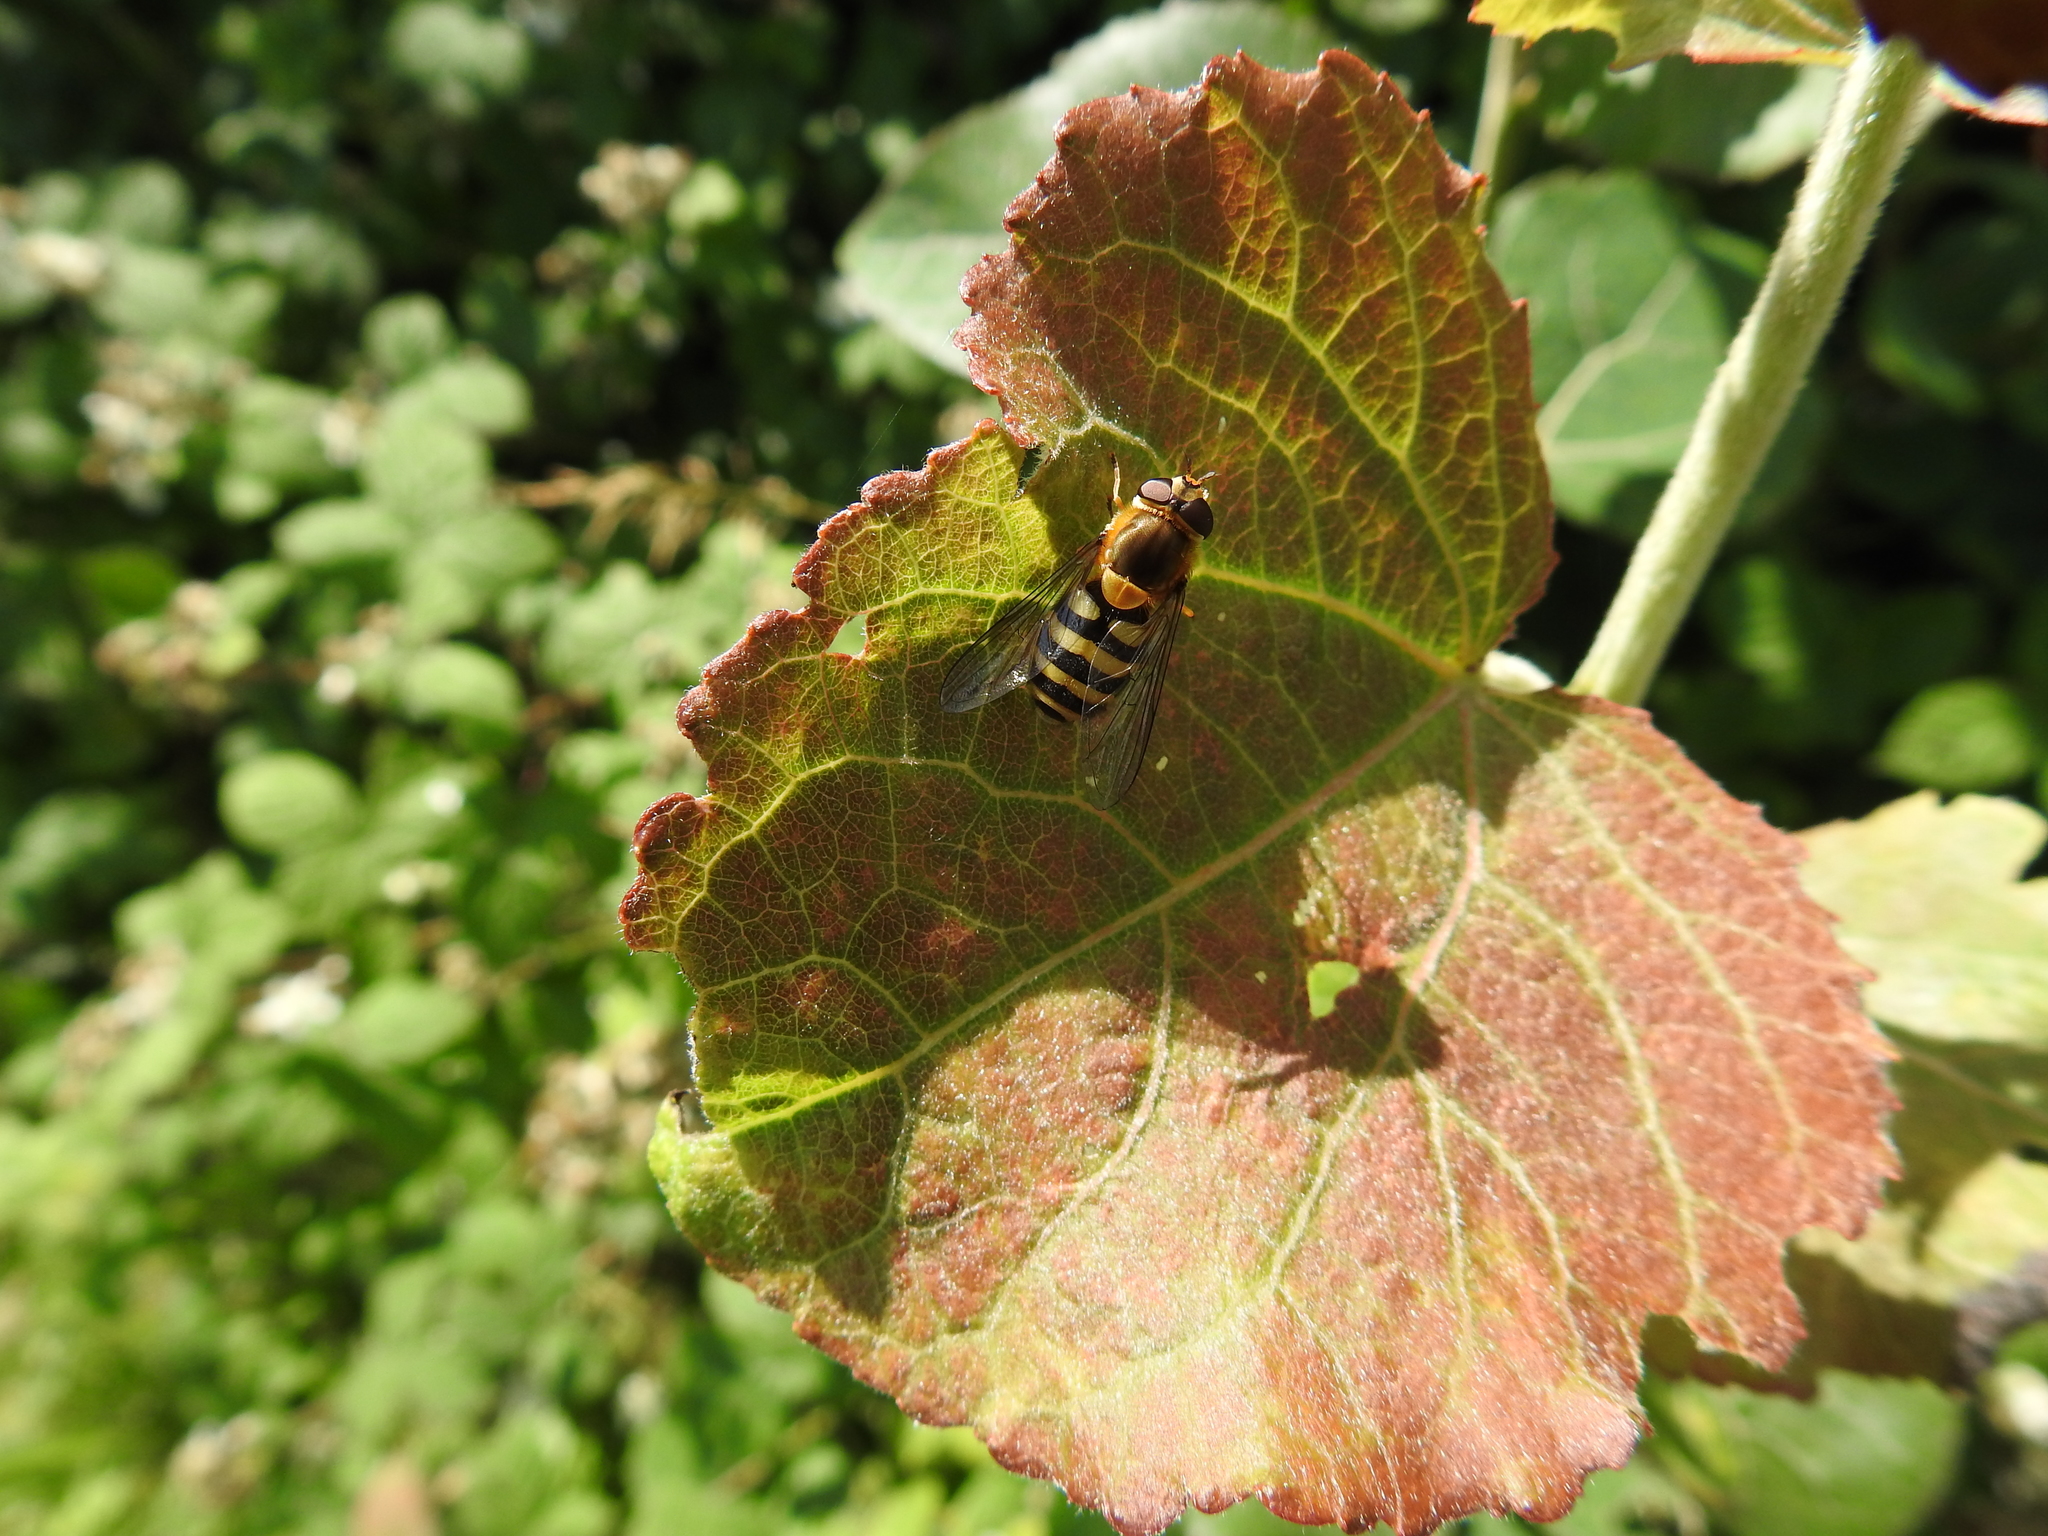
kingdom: Animalia
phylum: Arthropoda
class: Insecta
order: Diptera
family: Syrphidae
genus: Syrphus
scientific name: Syrphus
